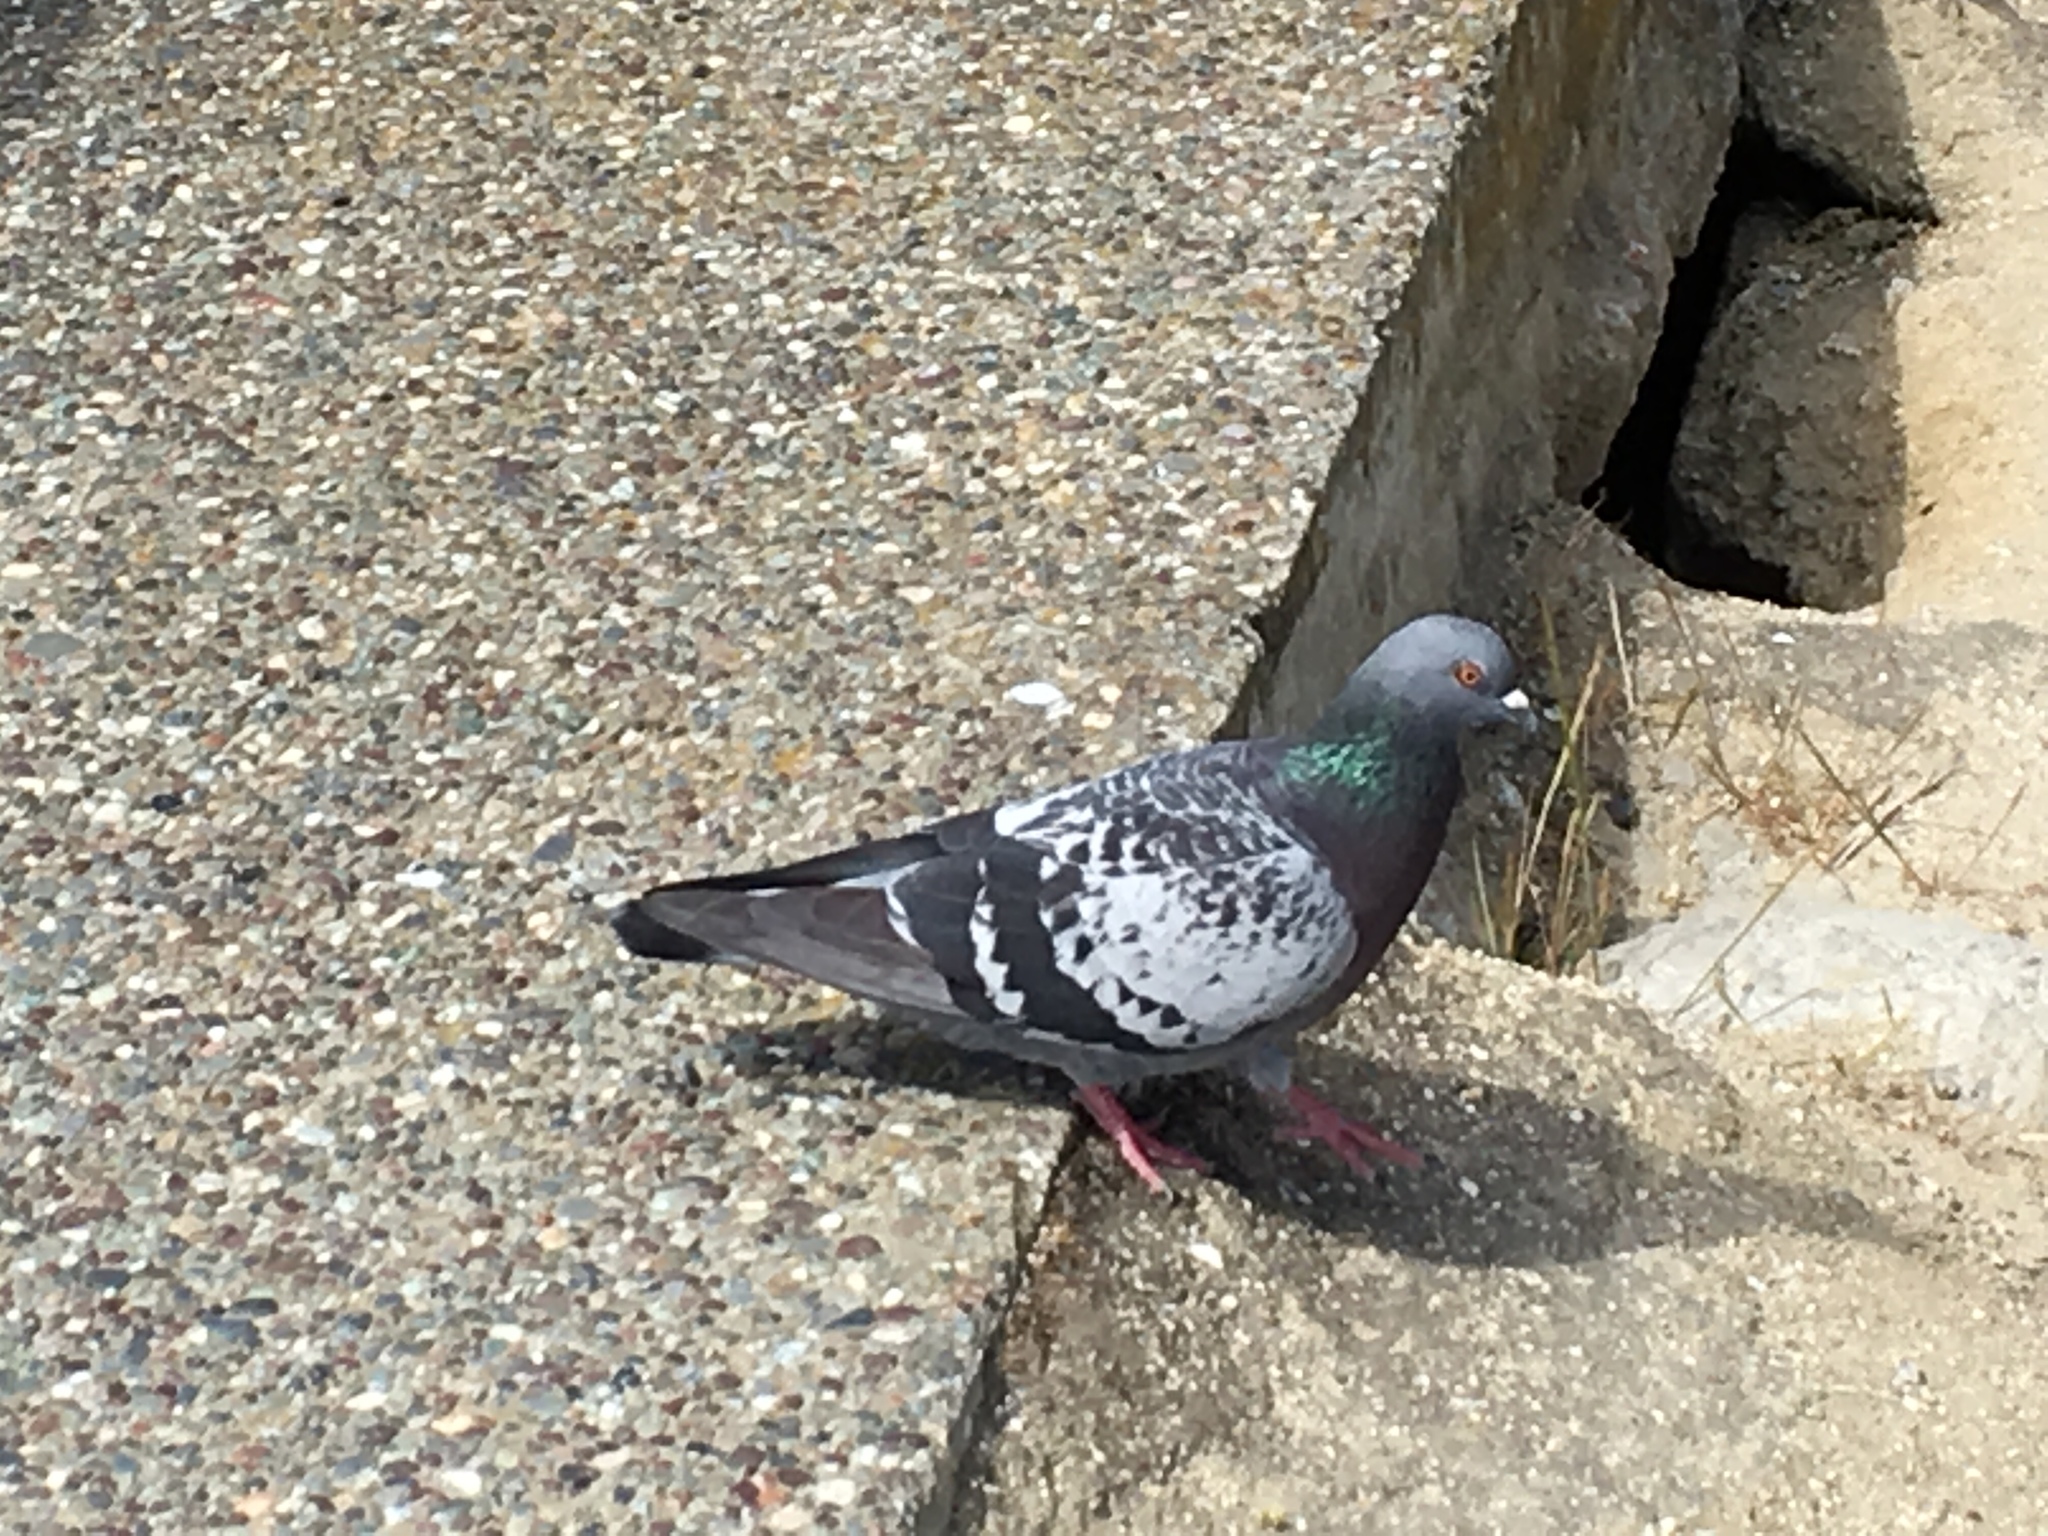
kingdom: Animalia
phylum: Chordata
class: Aves
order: Columbiformes
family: Columbidae
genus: Columba
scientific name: Columba livia
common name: Rock pigeon
